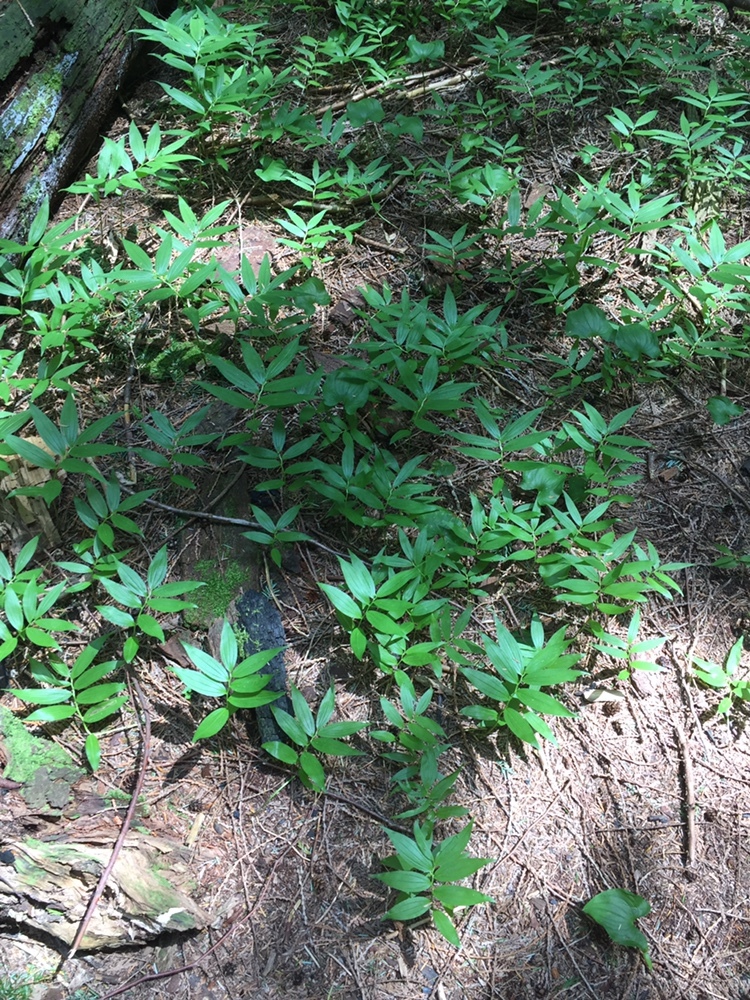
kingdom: Plantae
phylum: Tracheophyta
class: Liliopsida
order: Asparagales
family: Asparagaceae
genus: Maianthemum
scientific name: Maianthemum stellatum
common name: Little false solomon's seal
